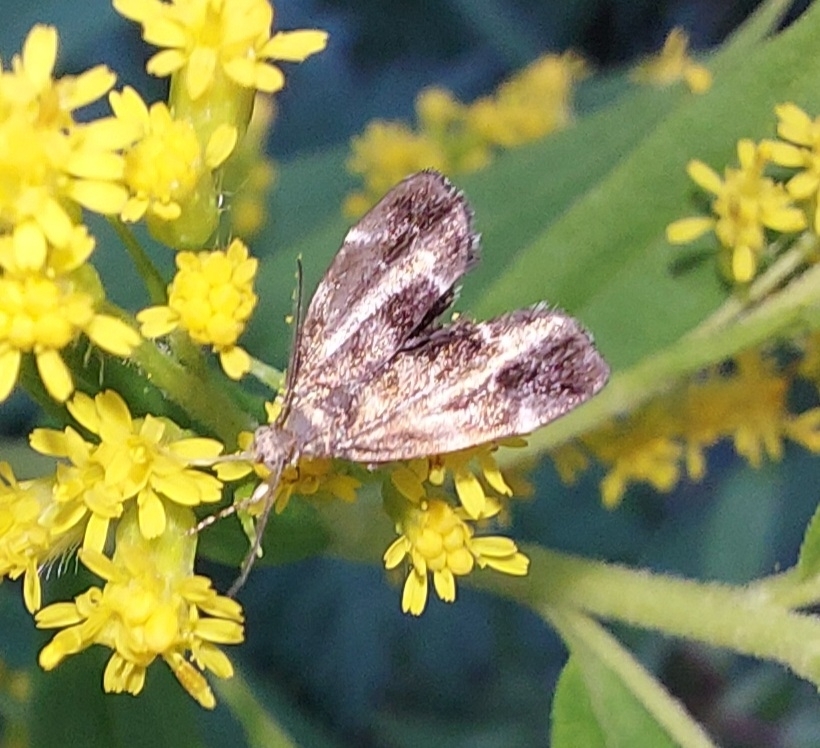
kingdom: Animalia
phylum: Arthropoda
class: Insecta
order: Lepidoptera
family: Choreutidae
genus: Anthophila
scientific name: Anthophila fabriciana
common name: Nettle-tap
